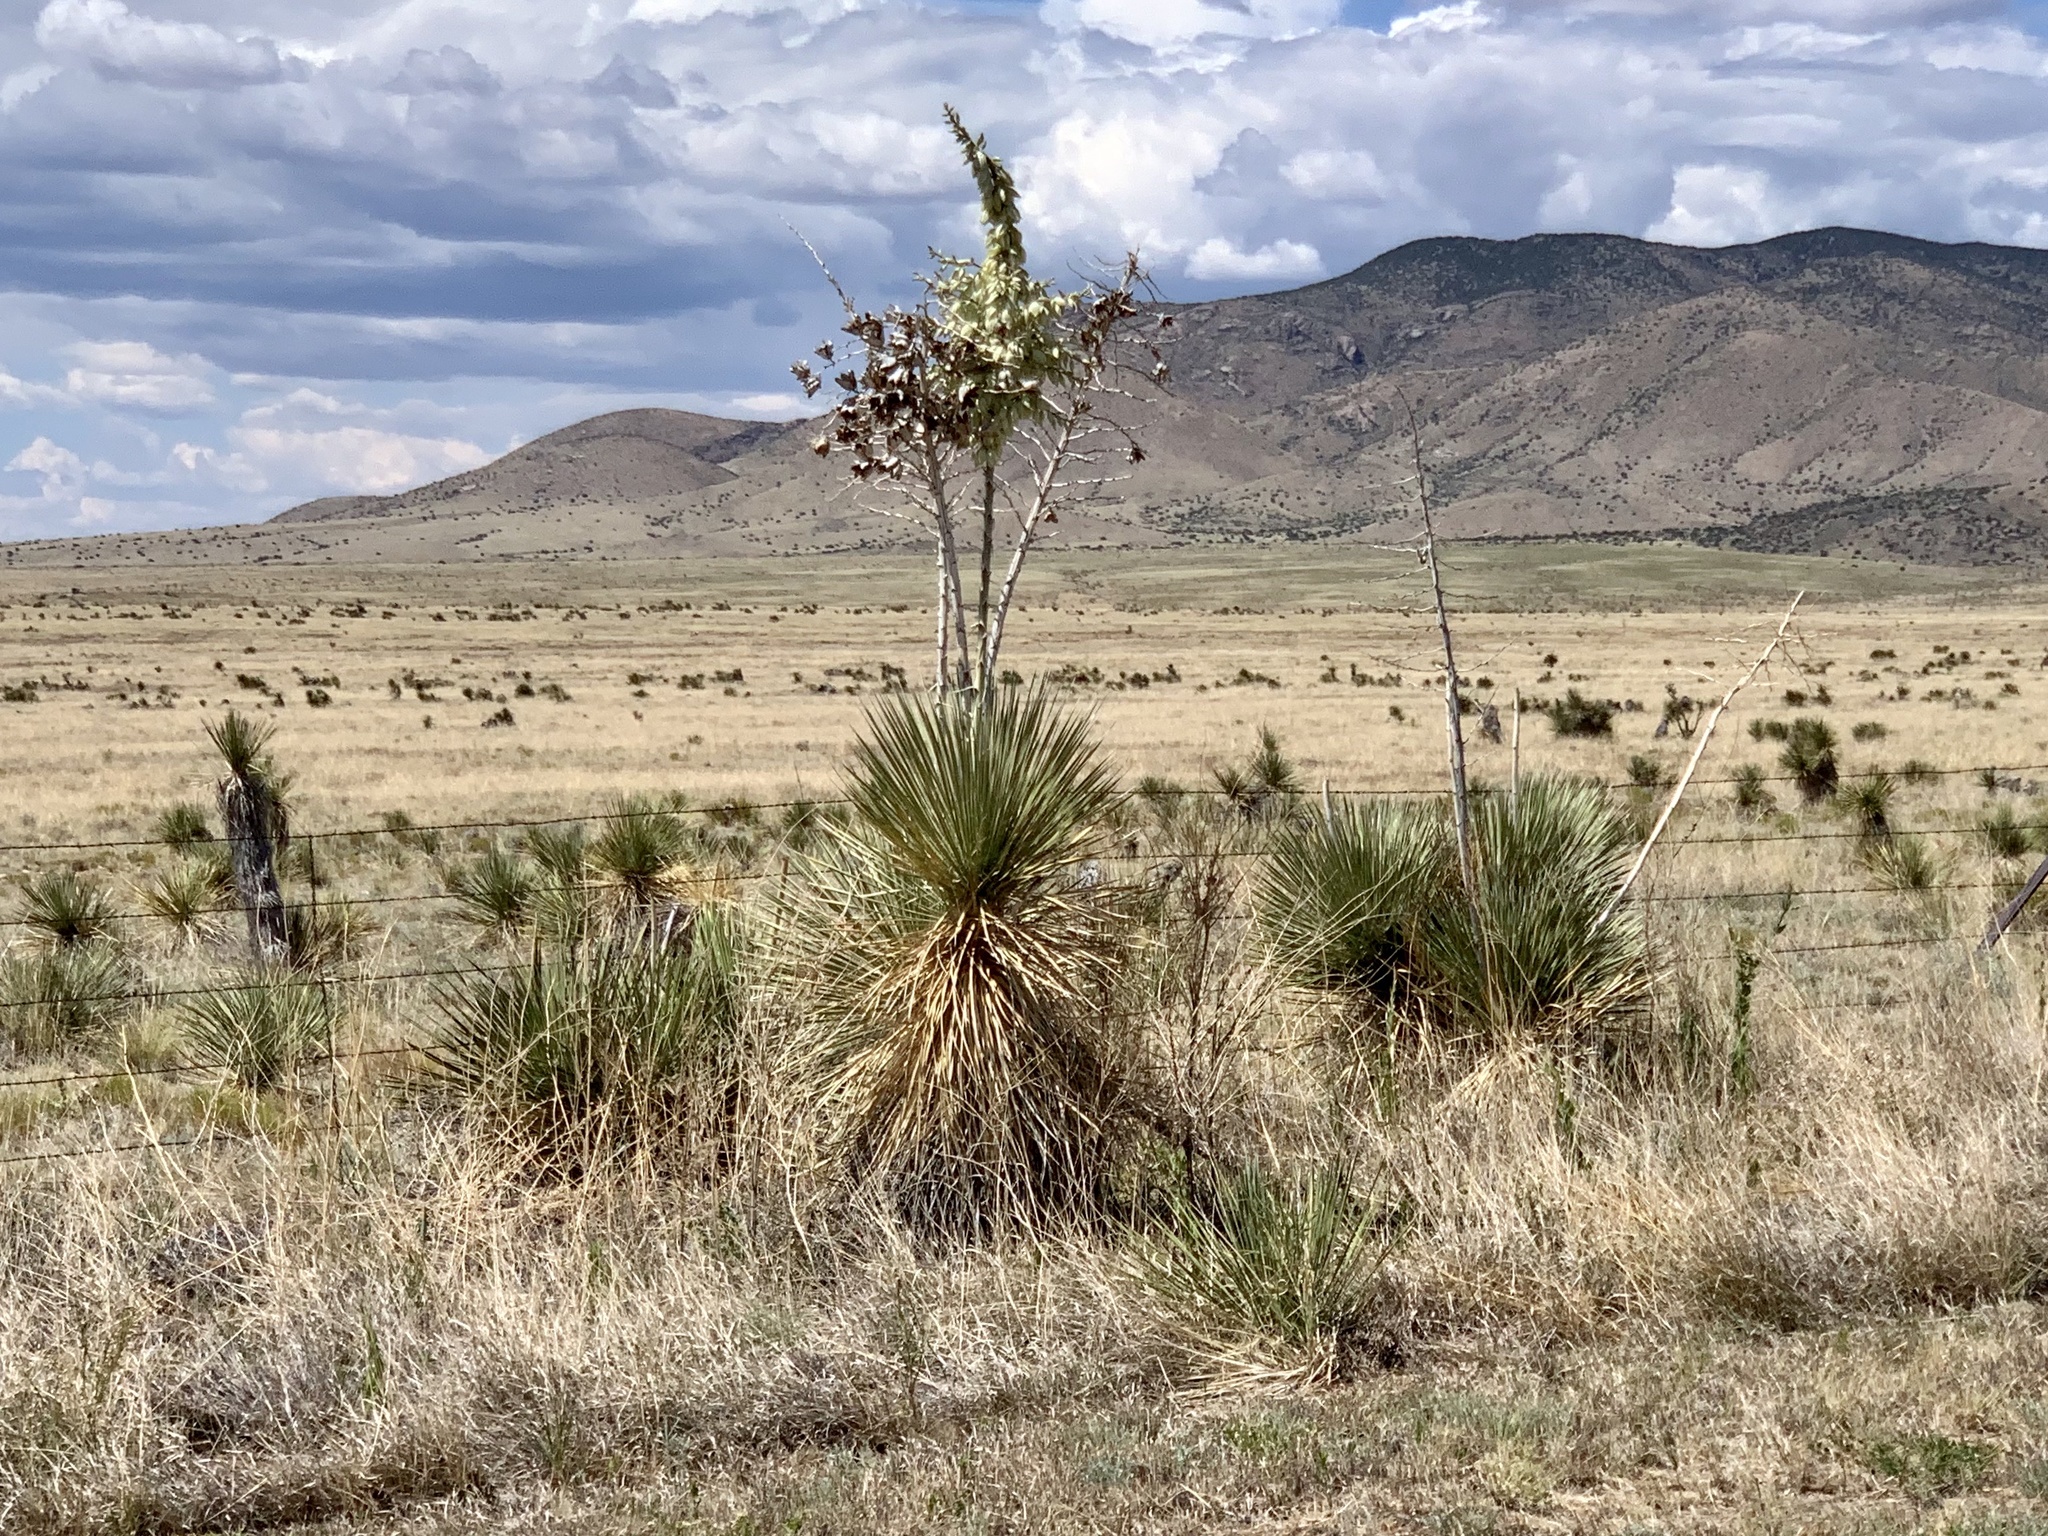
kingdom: Plantae
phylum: Tracheophyta
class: Liliopsida
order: Asparagales
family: Asparagaceae
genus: Yucca
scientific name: Yucca elata
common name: Palmella
